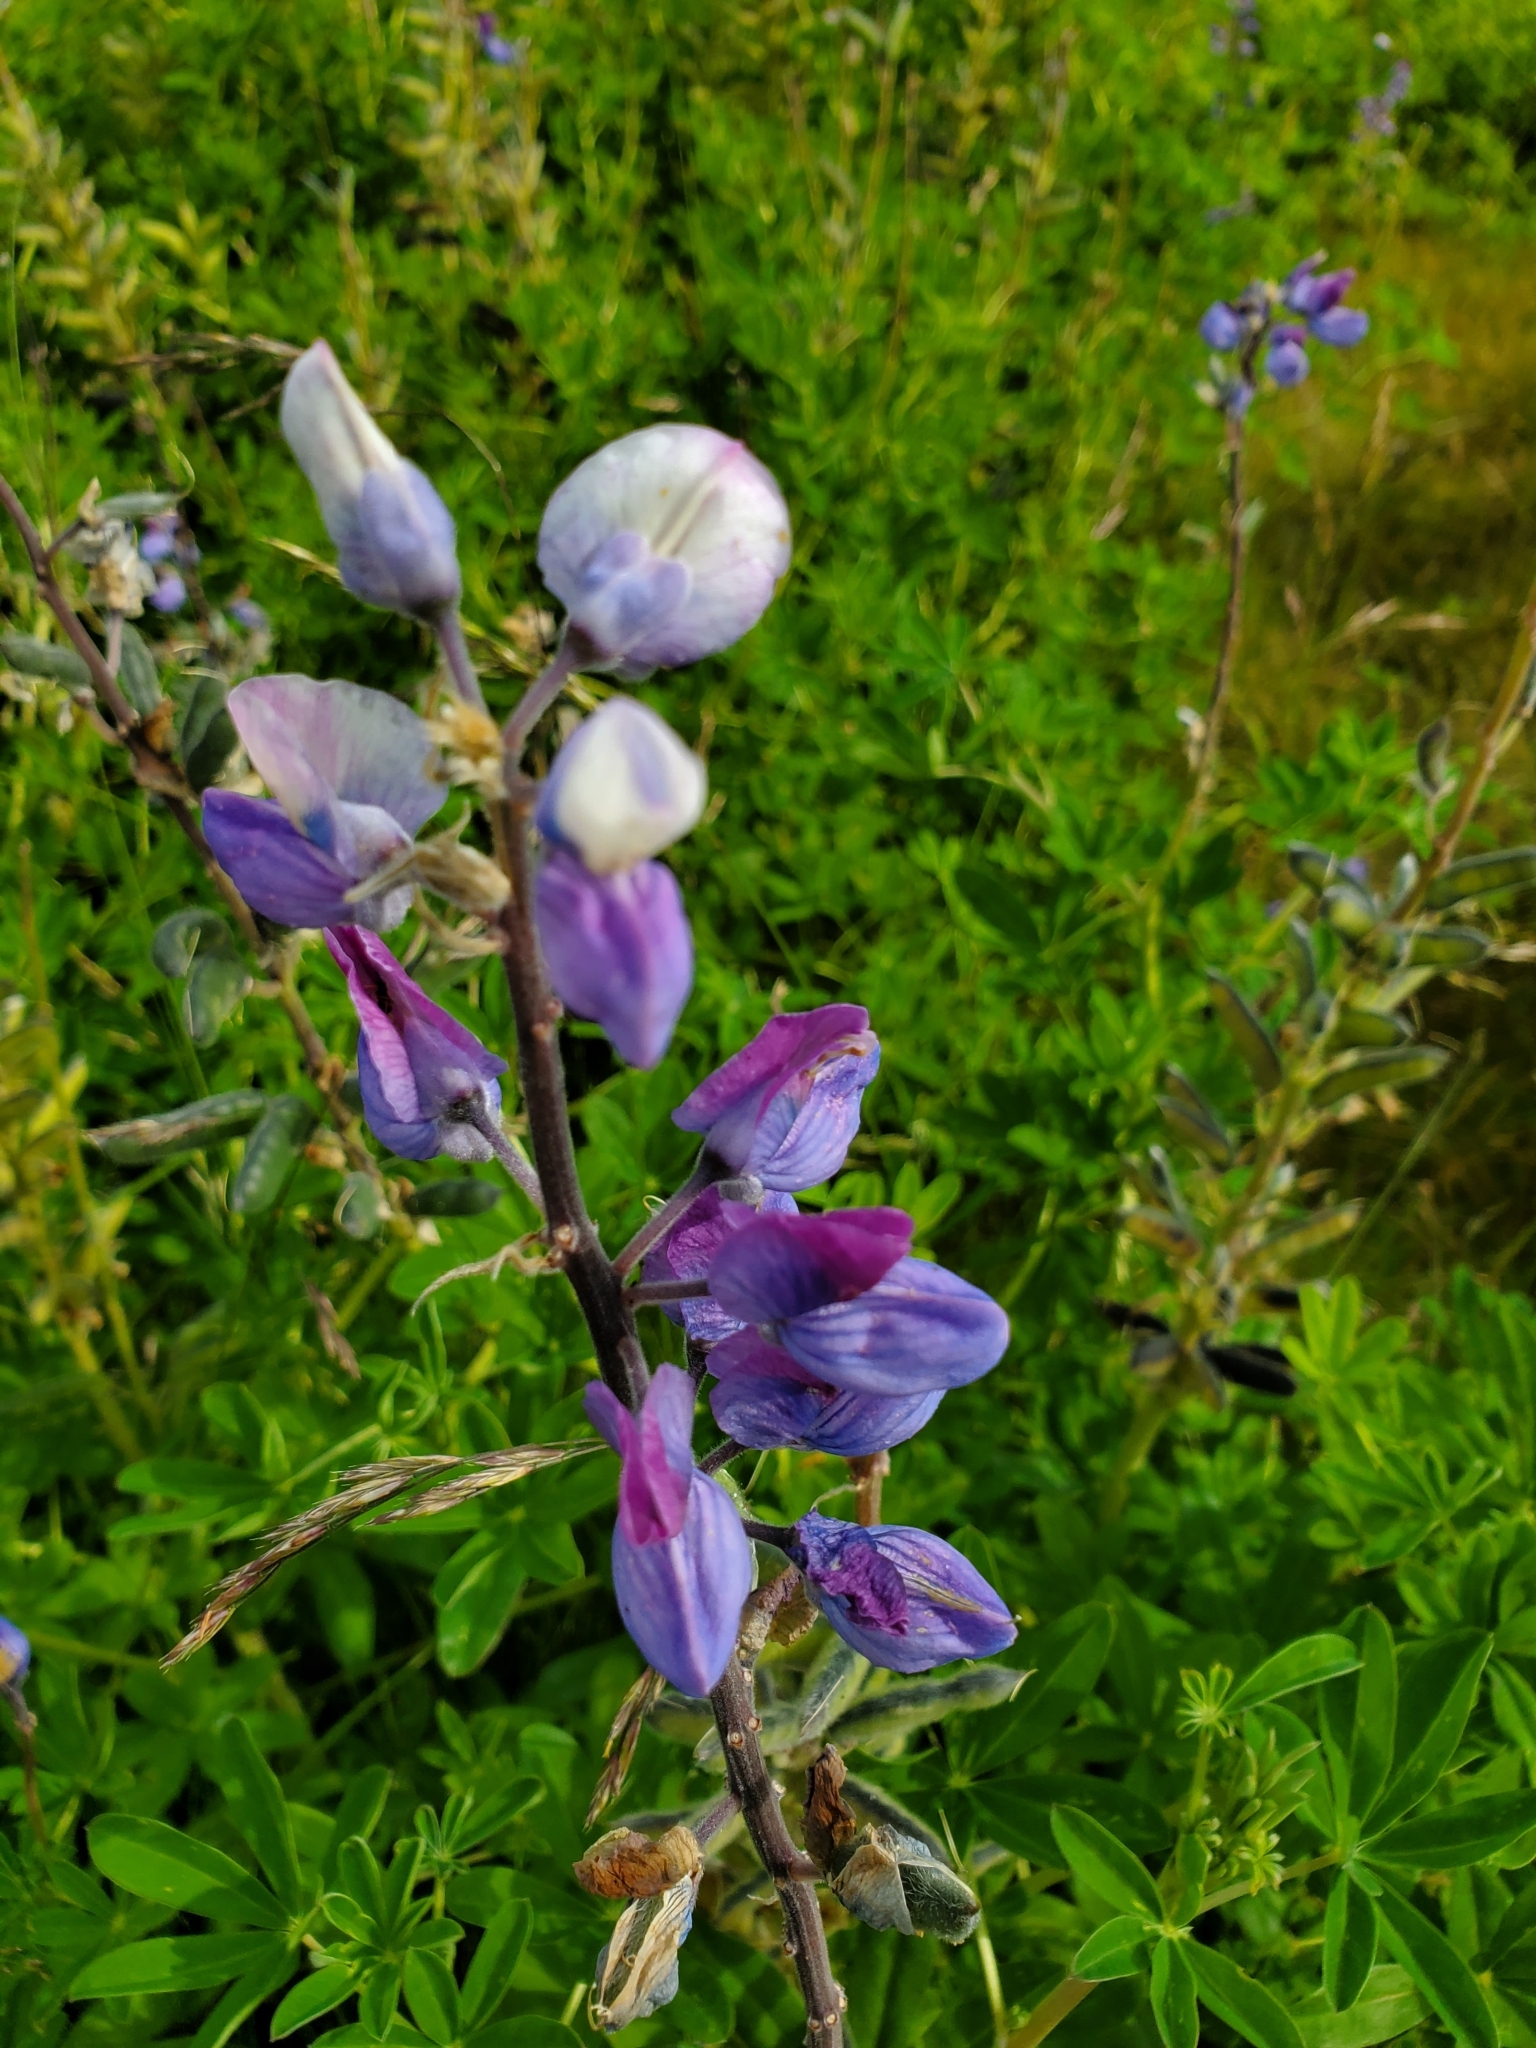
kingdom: Plantae
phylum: Tracheophyta
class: Magnoliopsida
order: Fabales
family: Fabaceae
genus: Lupinus
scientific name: Lupinus nootkatensis
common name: Nootka lupine
